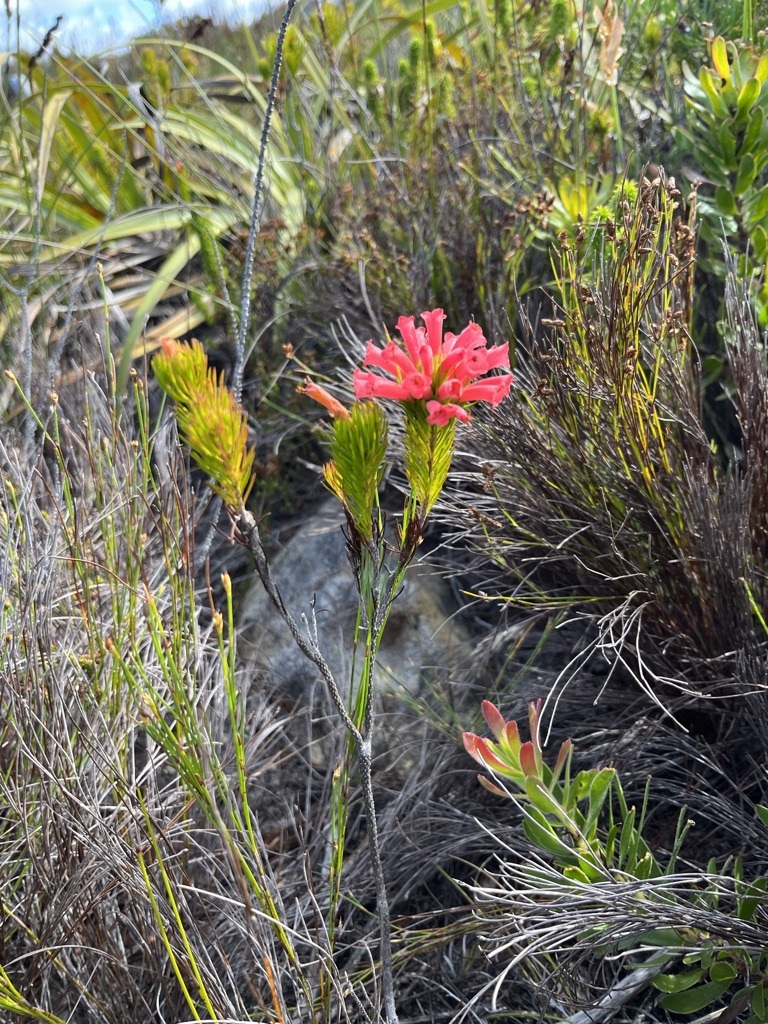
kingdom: Plantae
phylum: Tracheophyta
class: Magnoliopsida
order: Ericales
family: Ericaceae
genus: Erica
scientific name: Erica vestita
